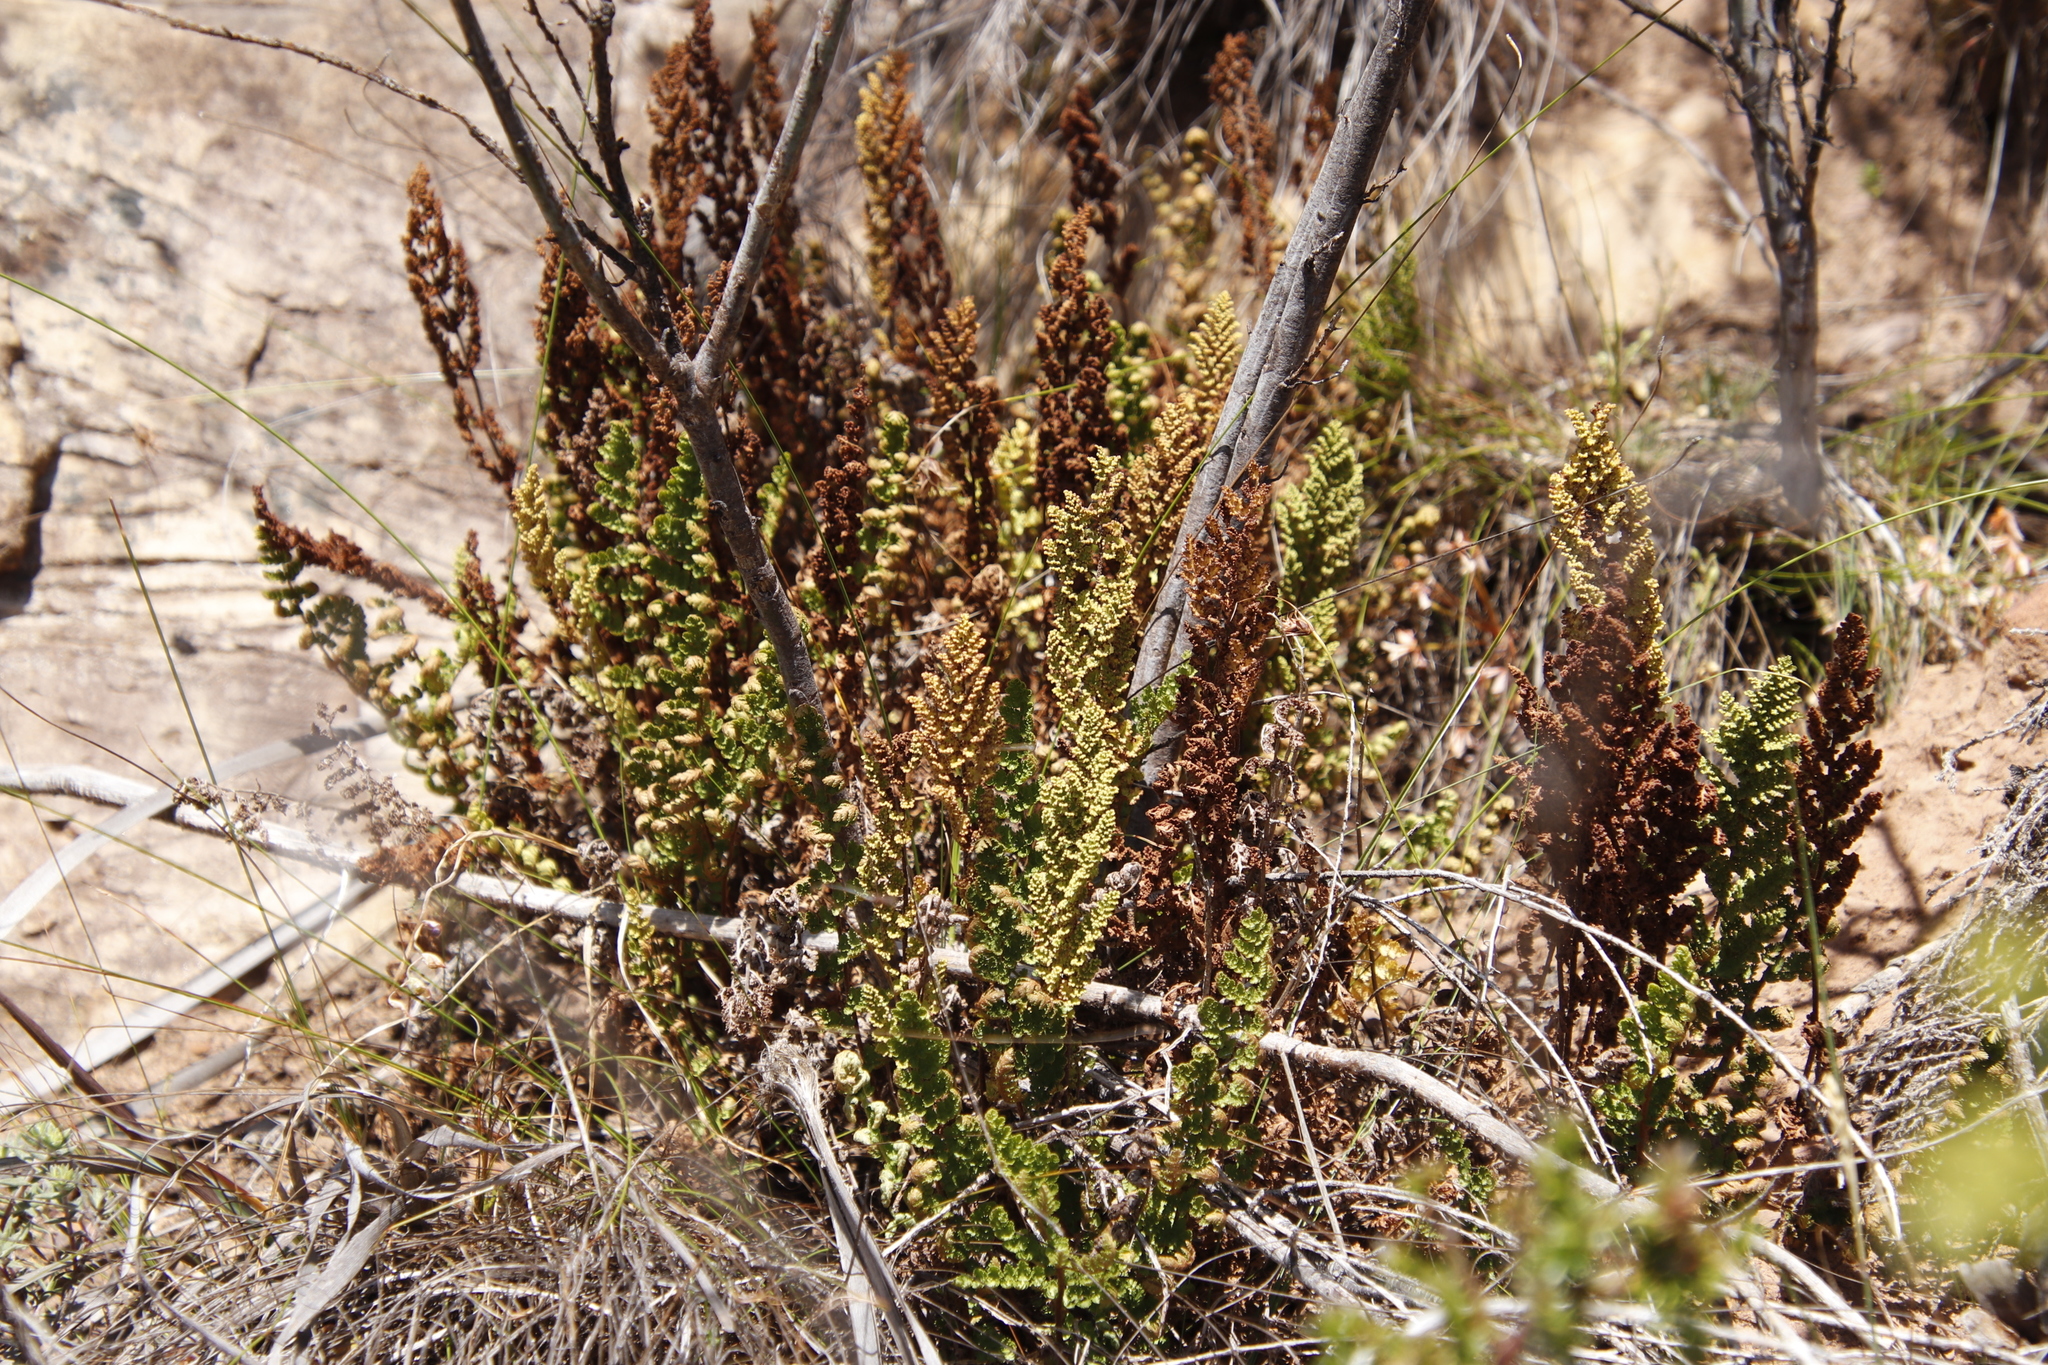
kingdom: Plantae
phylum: Tracheophyta
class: Polypodiopsida
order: Schizaeales
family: Anemiaceae
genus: Anemia
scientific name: Anemia caffrorum
